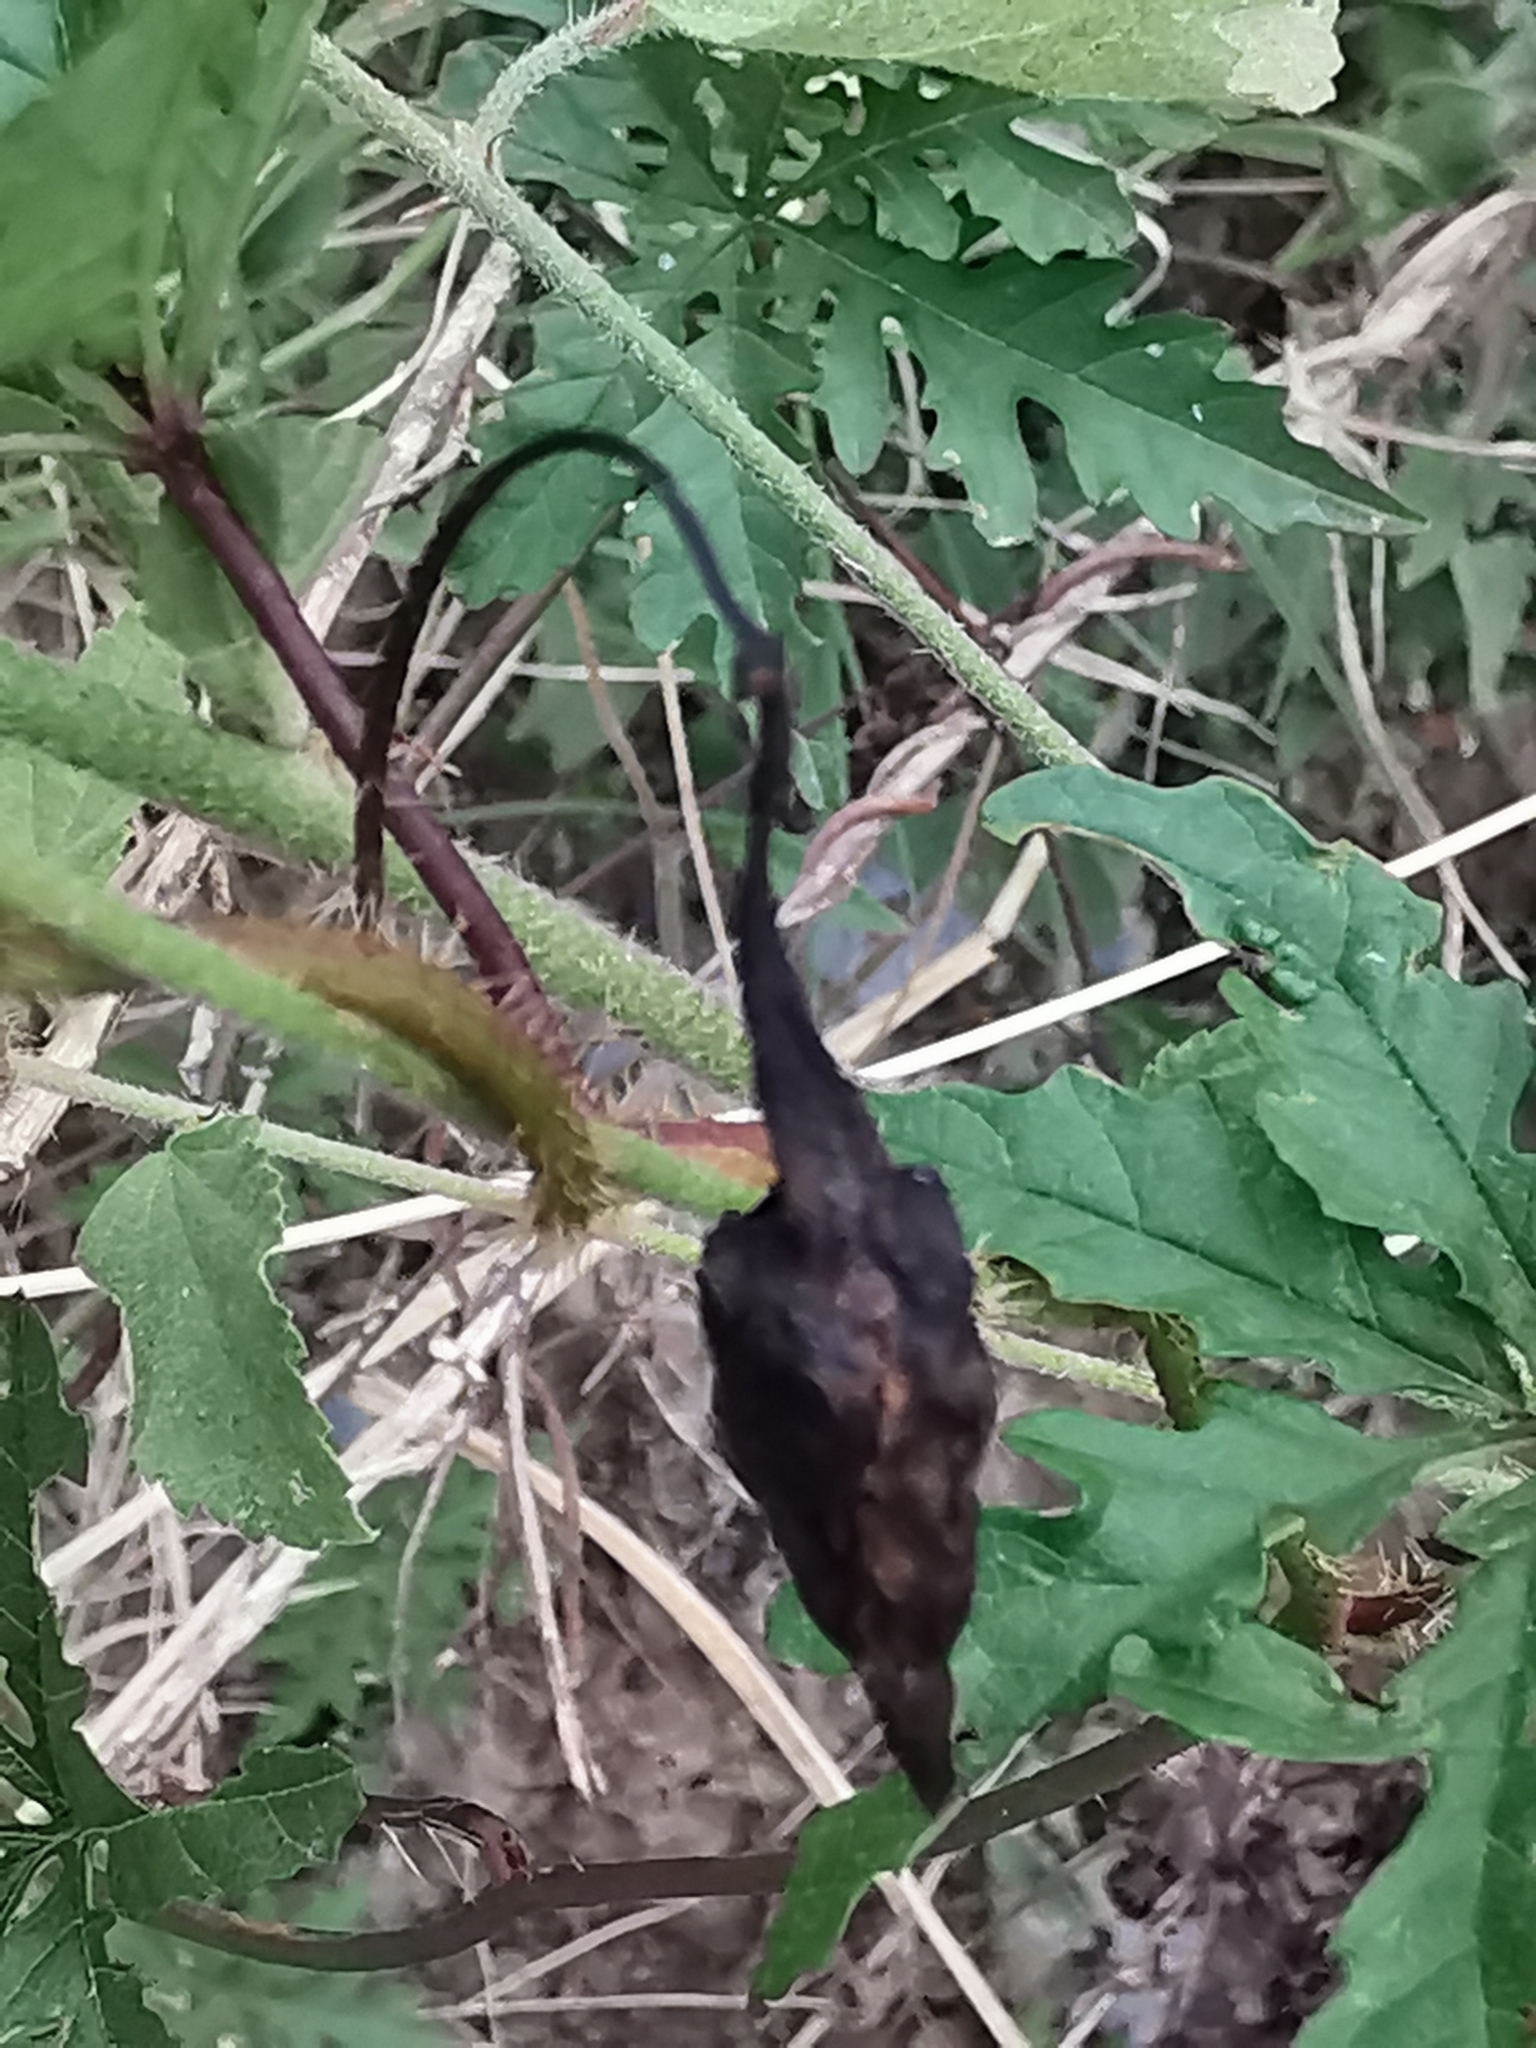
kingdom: Plantae
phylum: Tracheophyta
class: Magnoliopsida
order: Solanales
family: Convolvulaceae
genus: Distimake
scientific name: Distimake dissectus
